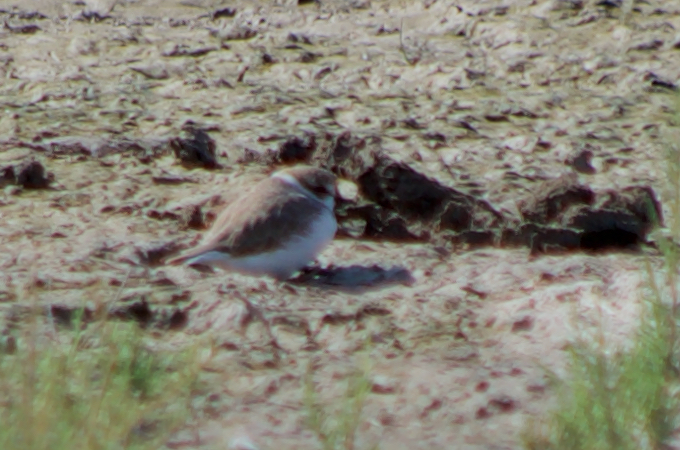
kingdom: Animalia
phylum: Chordata
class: Aves
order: Charadriiformes
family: Charadriidae
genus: Charadrius
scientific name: Charadrius alexandrinus
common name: Kentish plover
